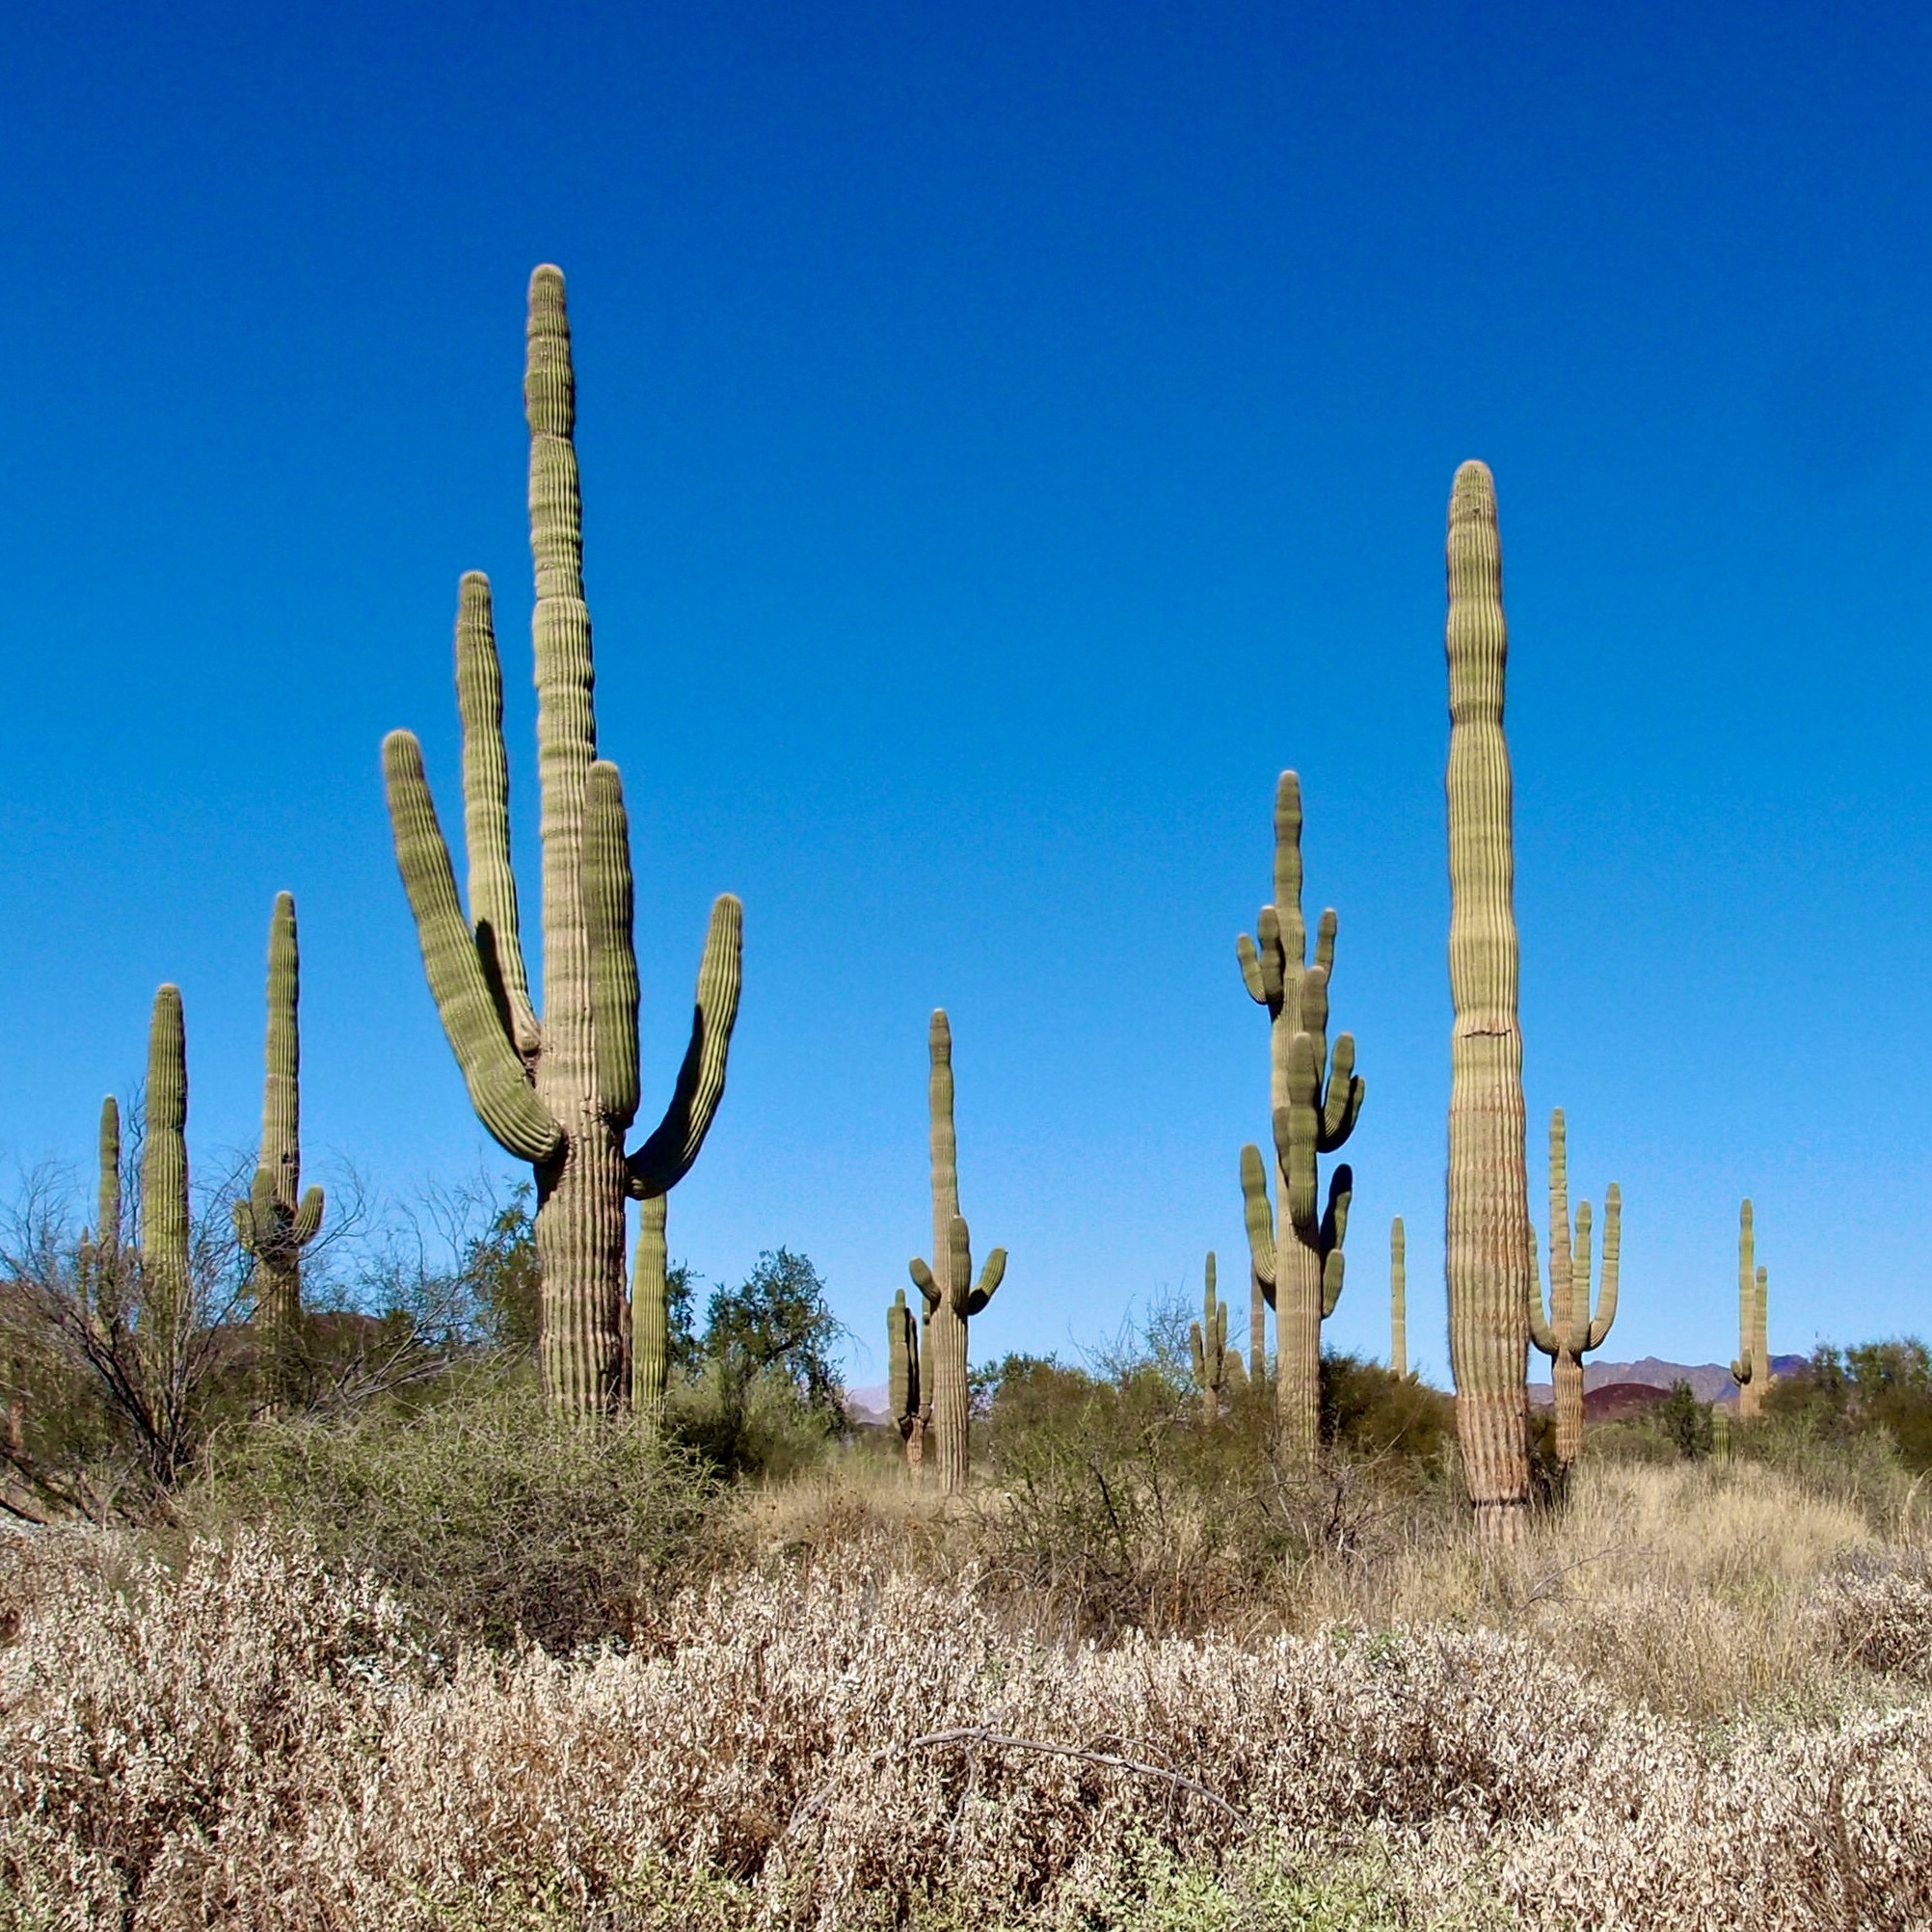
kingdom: Plantae
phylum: Tracheophyta
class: Magnoliopsida
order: Caryophyllales
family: Cactaceae
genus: Carnegiea
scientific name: Carnegiea gigantea
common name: Saguaro
